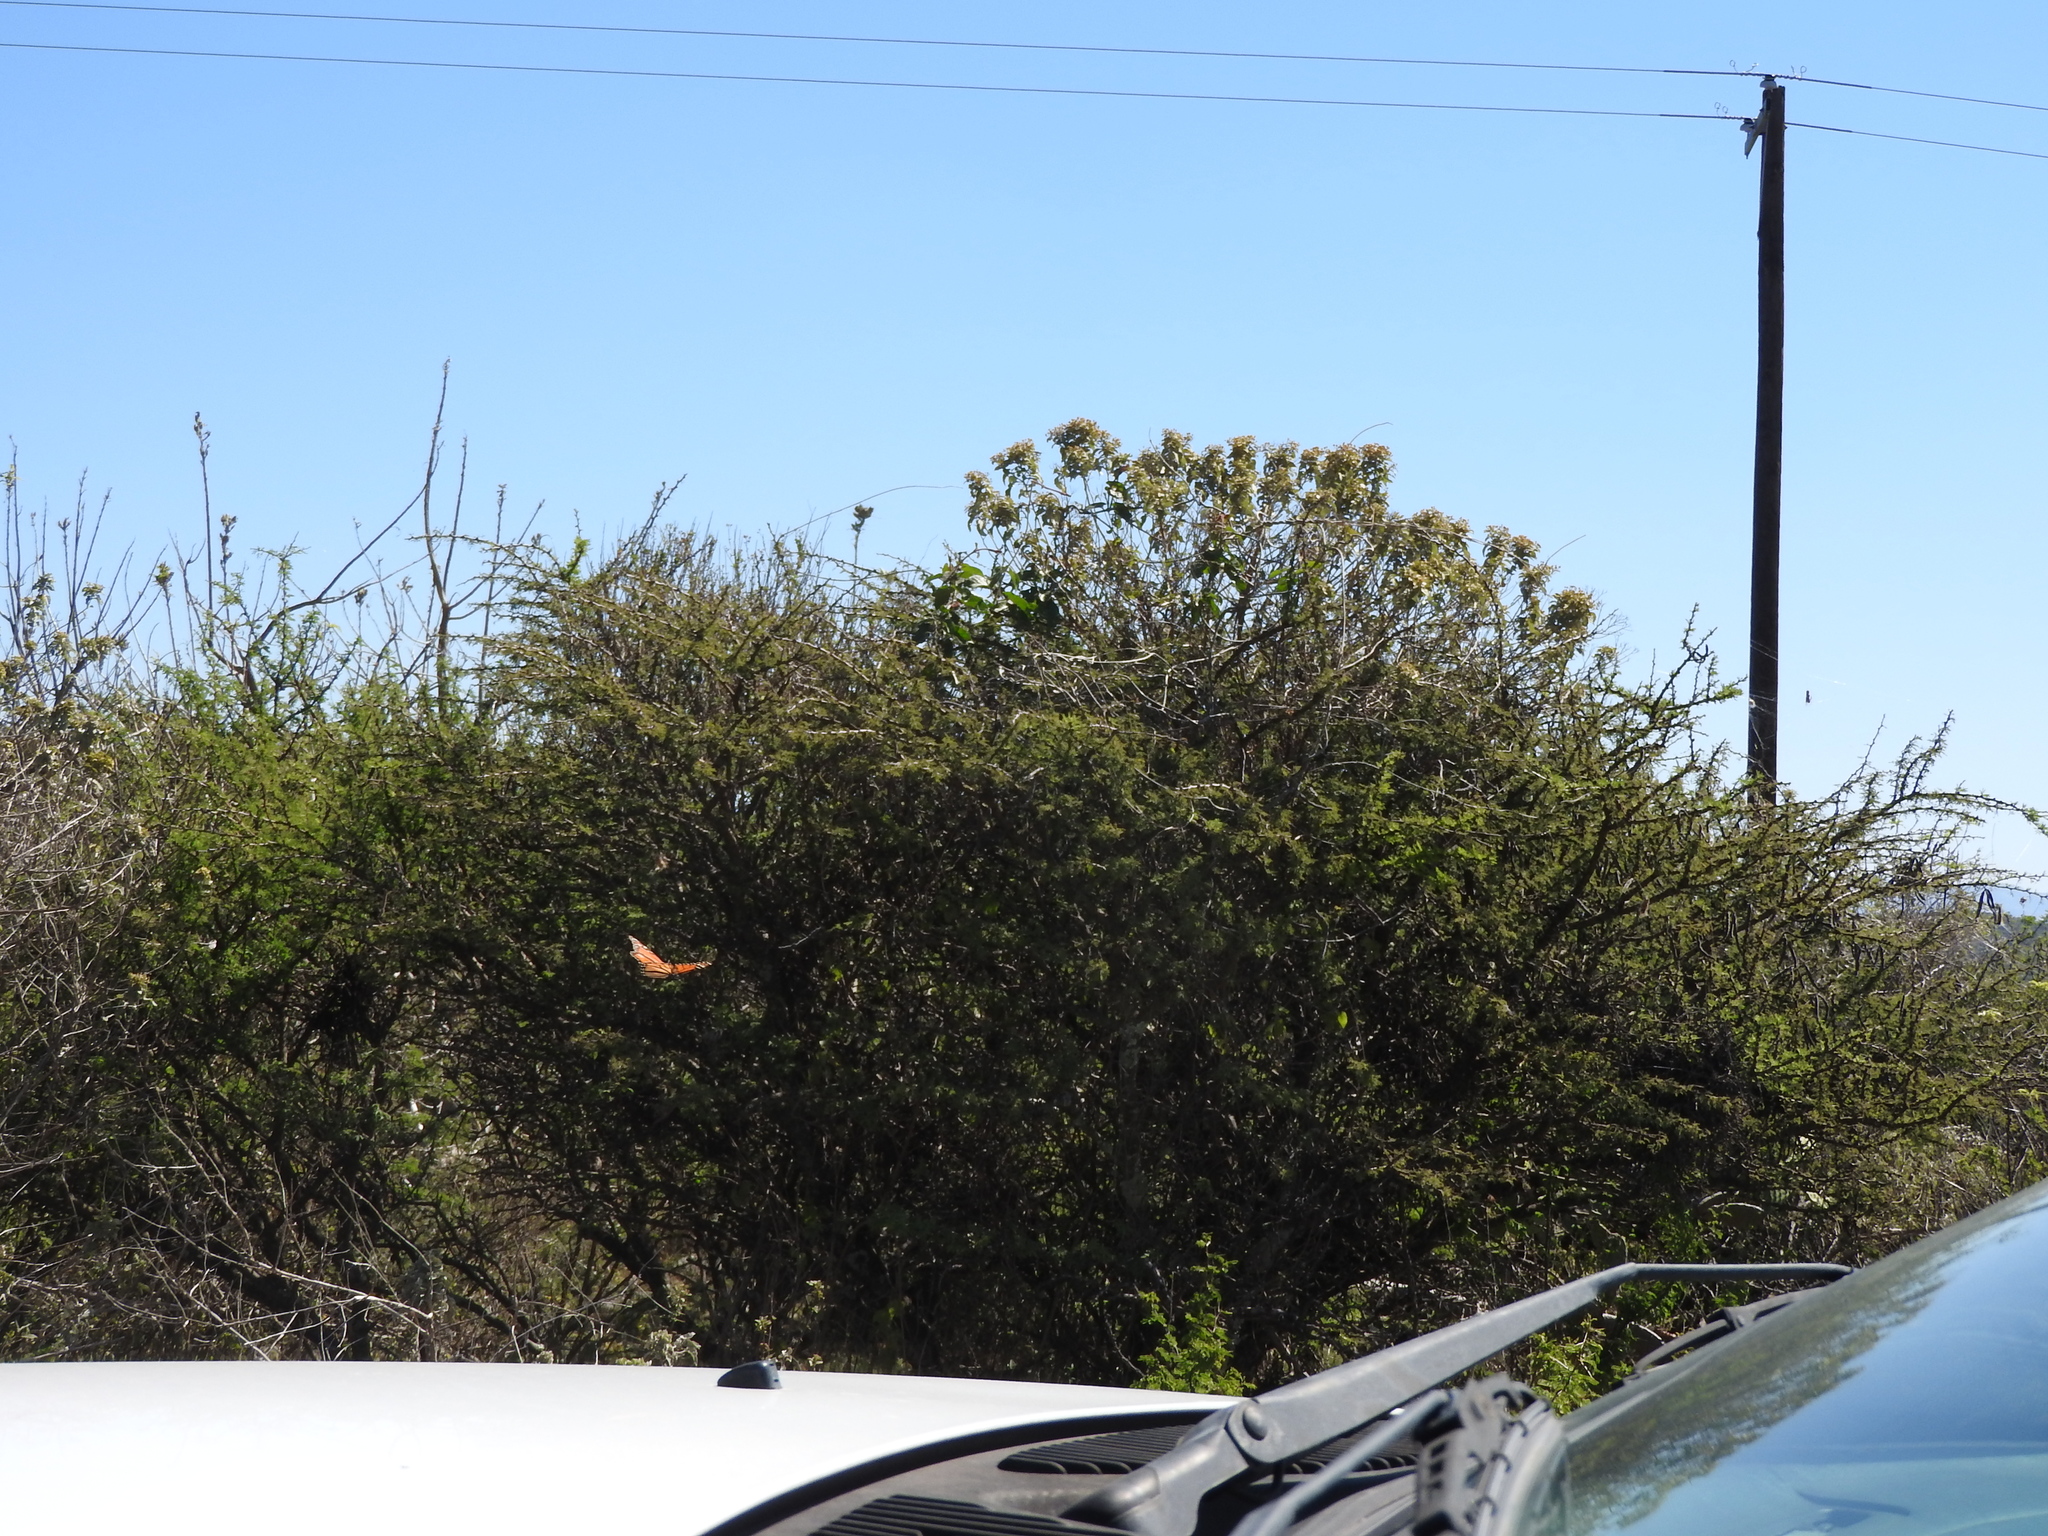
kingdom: Animalia
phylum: Arthropoda
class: Insecta
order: Lepidoptera
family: Nymphalidae
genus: Danaus
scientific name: Danaus plexippus
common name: Monarch
